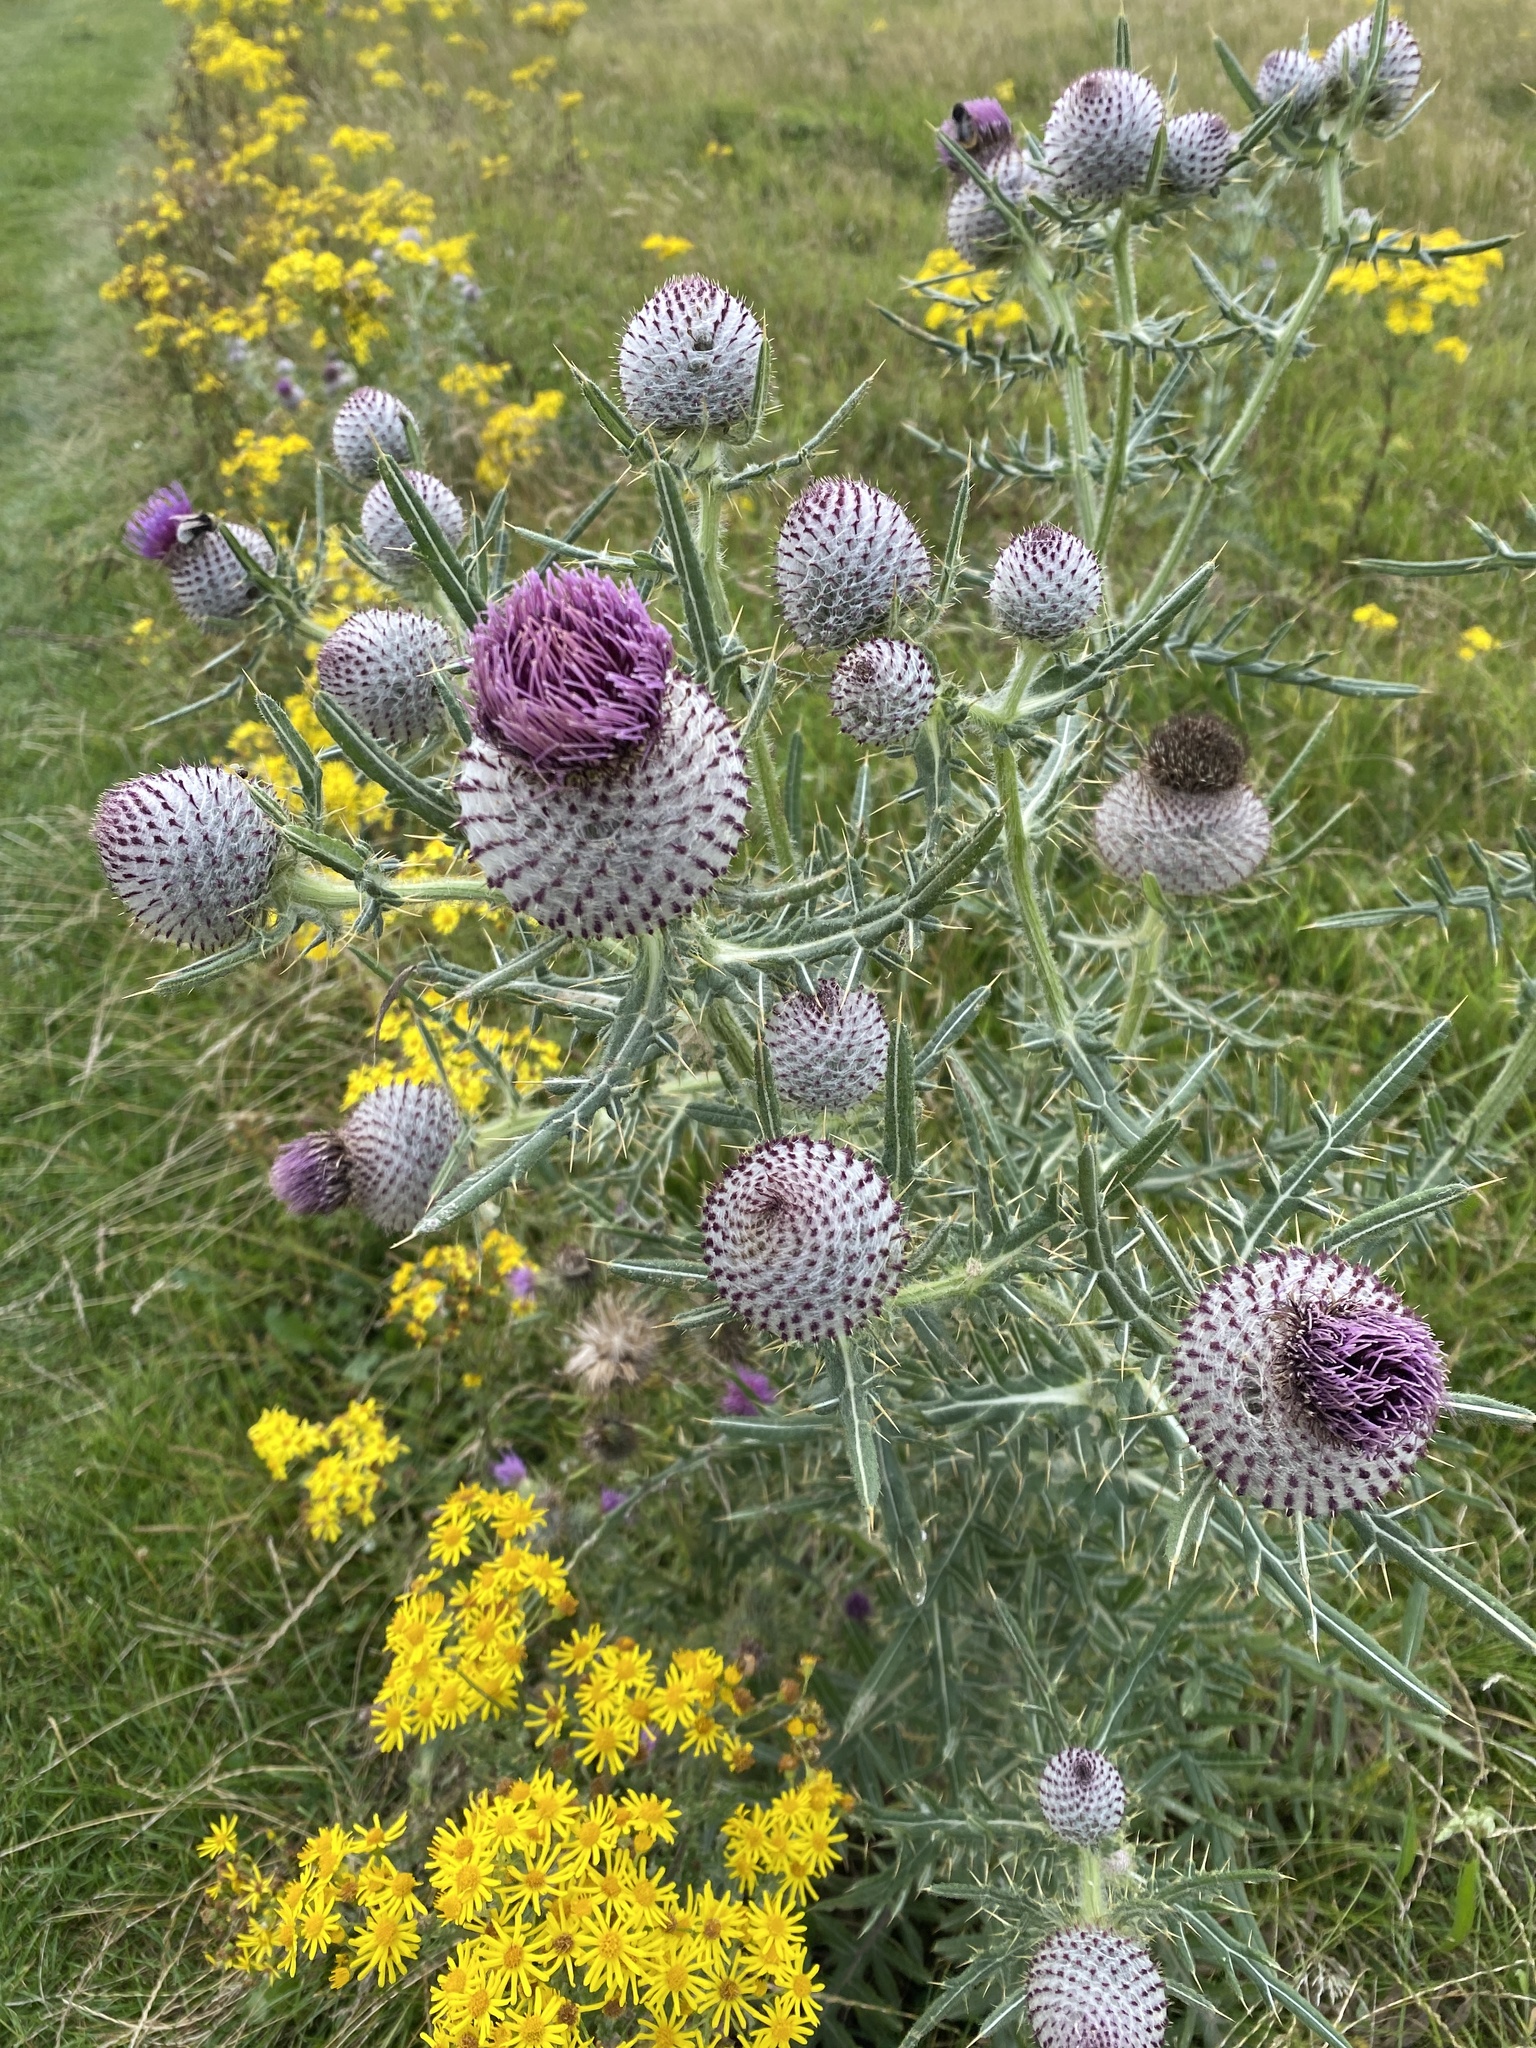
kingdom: Plantae
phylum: Tracheophyta
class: Magnoliopsida
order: Asterales
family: Asteraceae
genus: Lophiolepis
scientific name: Lophiolepis eriophora
